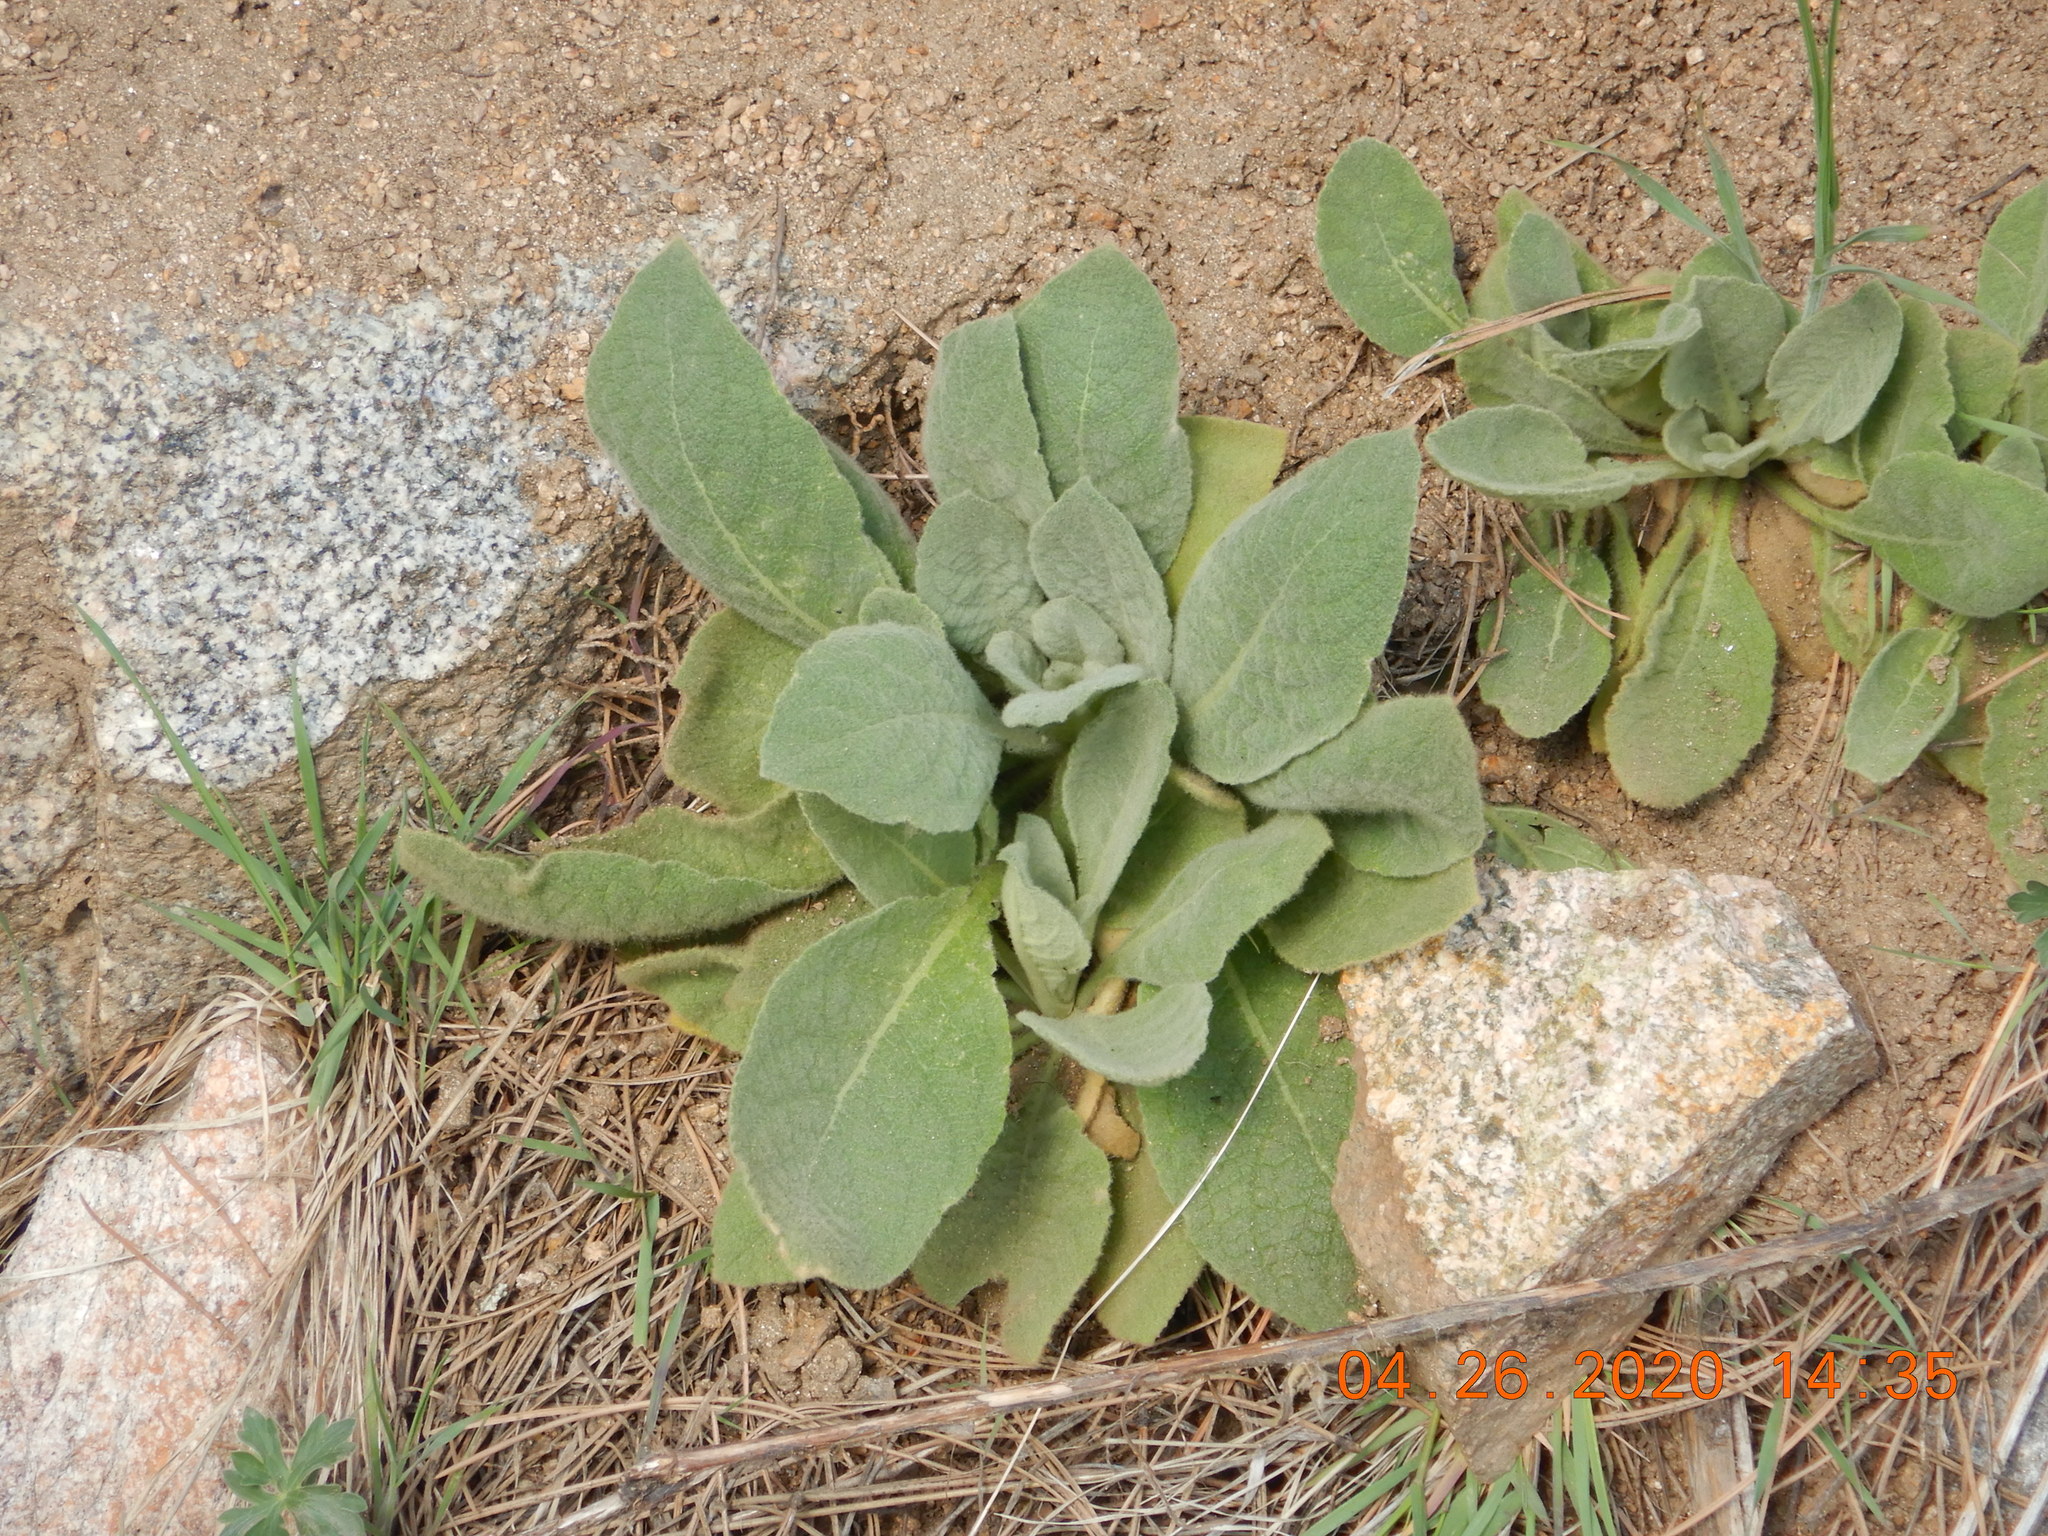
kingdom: Plantae
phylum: Tracheophyta
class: Magnoliopsida
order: Lamiales
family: Scrophulariaceae
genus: Verbascum
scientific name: Verbascum thapsus
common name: Common mullein
